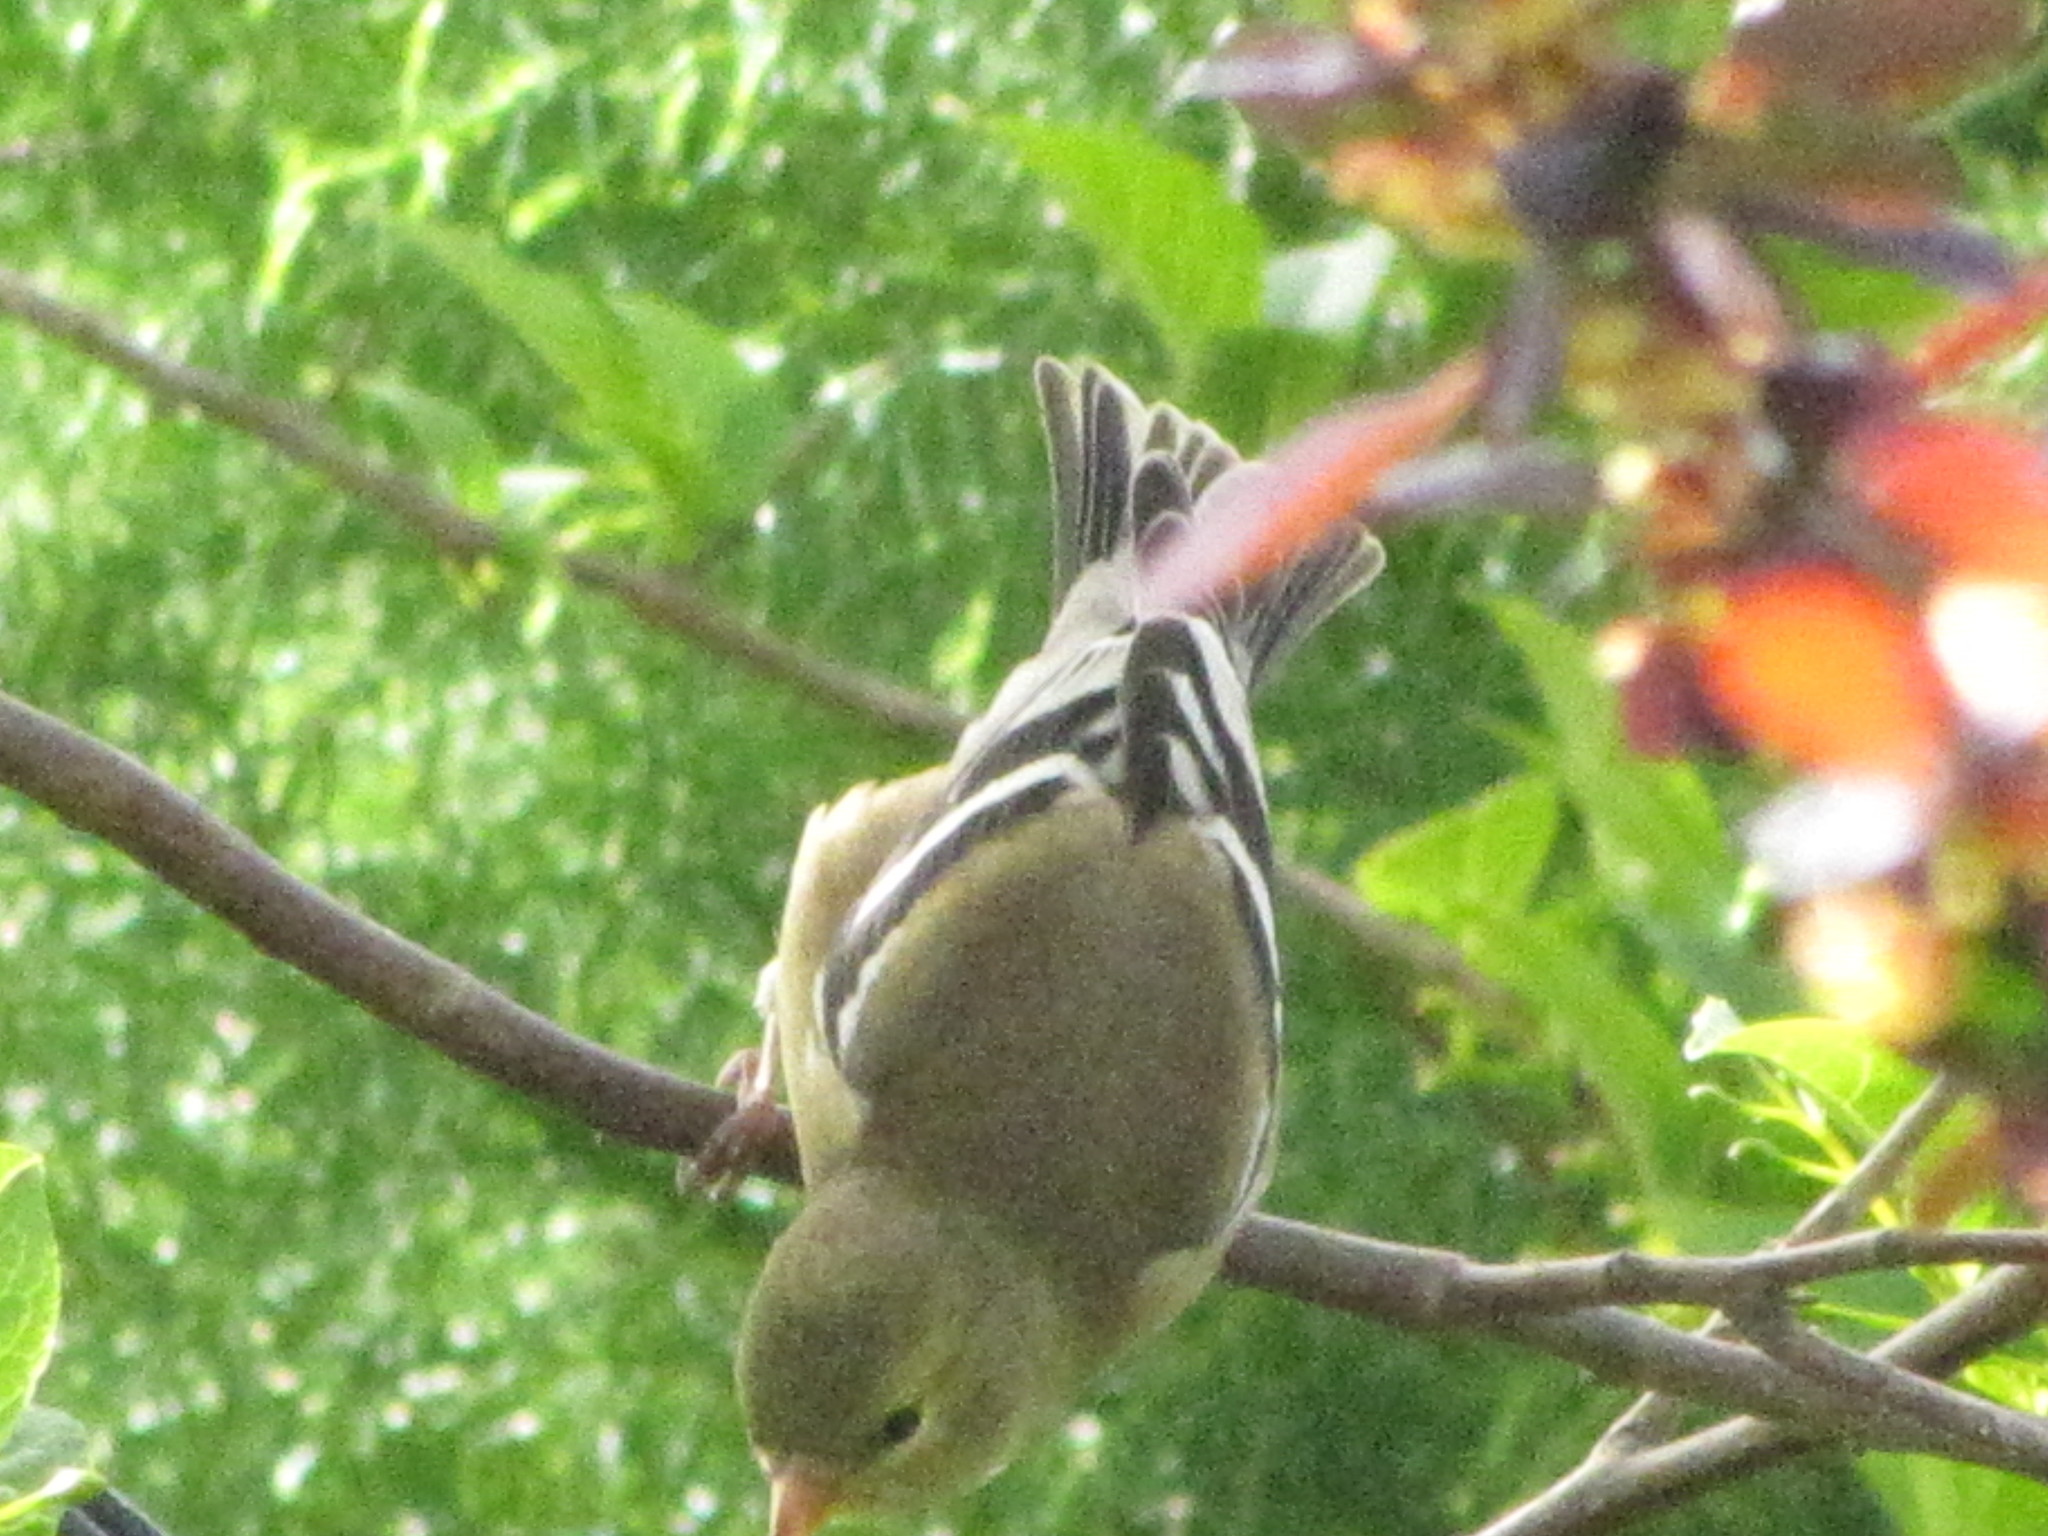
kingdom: Animalia
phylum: Chordata
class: Aves
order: Passeriformes
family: Fringillidae
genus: Spinus
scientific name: Spinus tristis
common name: American goldfinch
